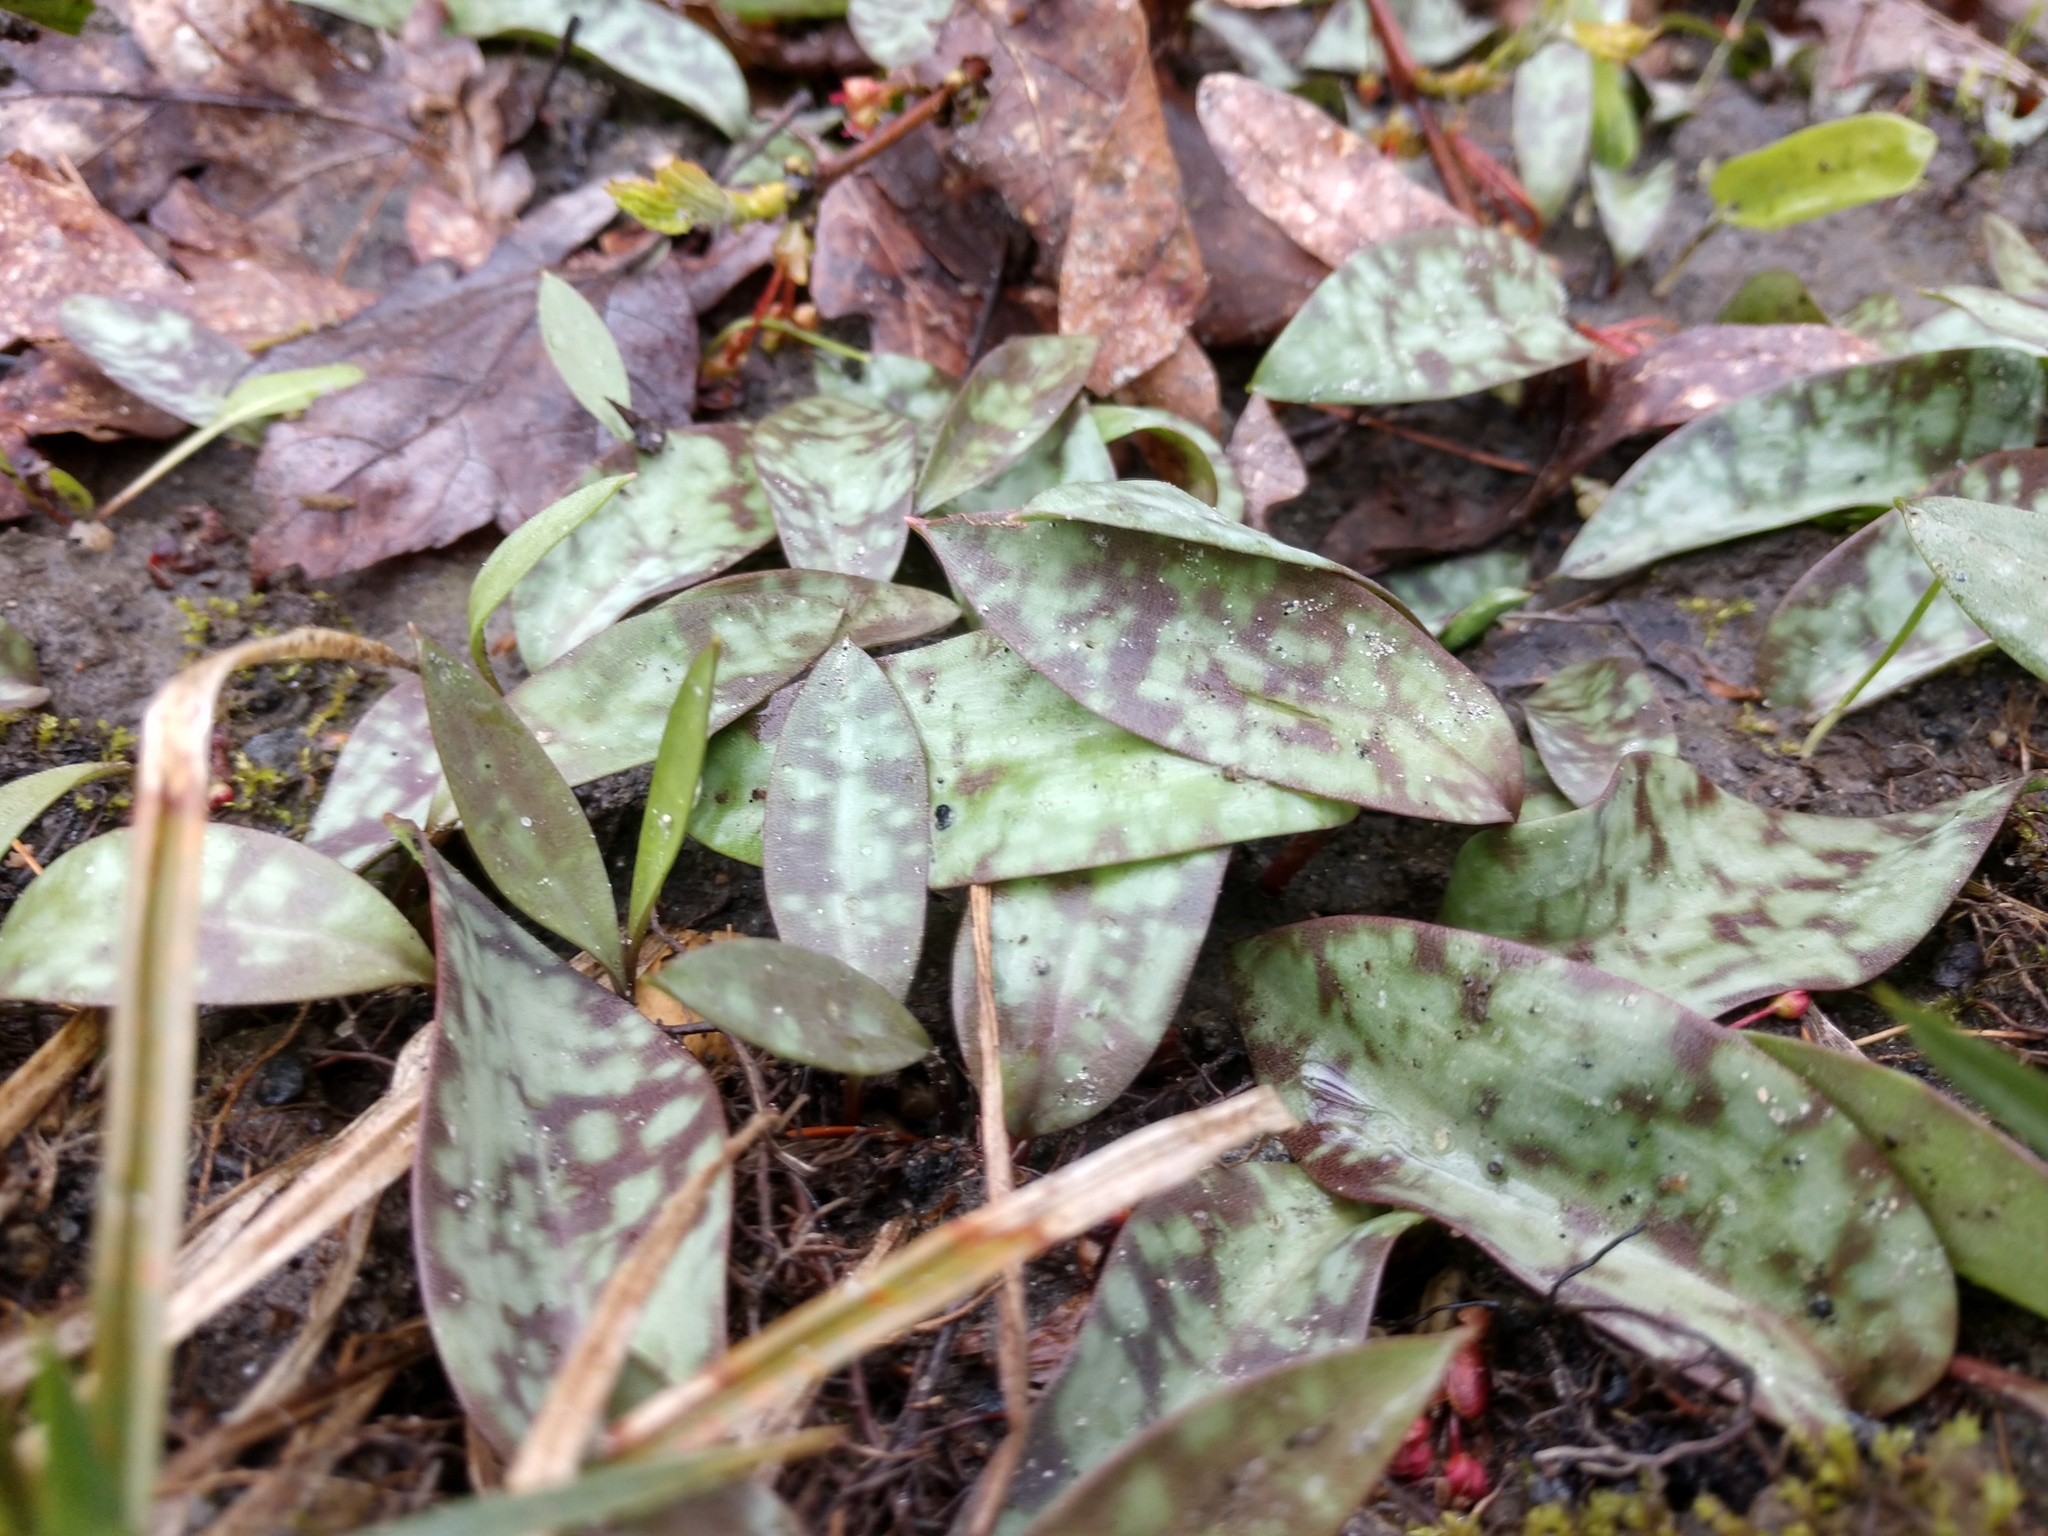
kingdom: Plantae
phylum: Tracheophyta
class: Liliopsida
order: Liliales
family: Liliaceae
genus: Erythronium
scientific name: Erythronium americanum
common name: Yellow adder's-tongue
